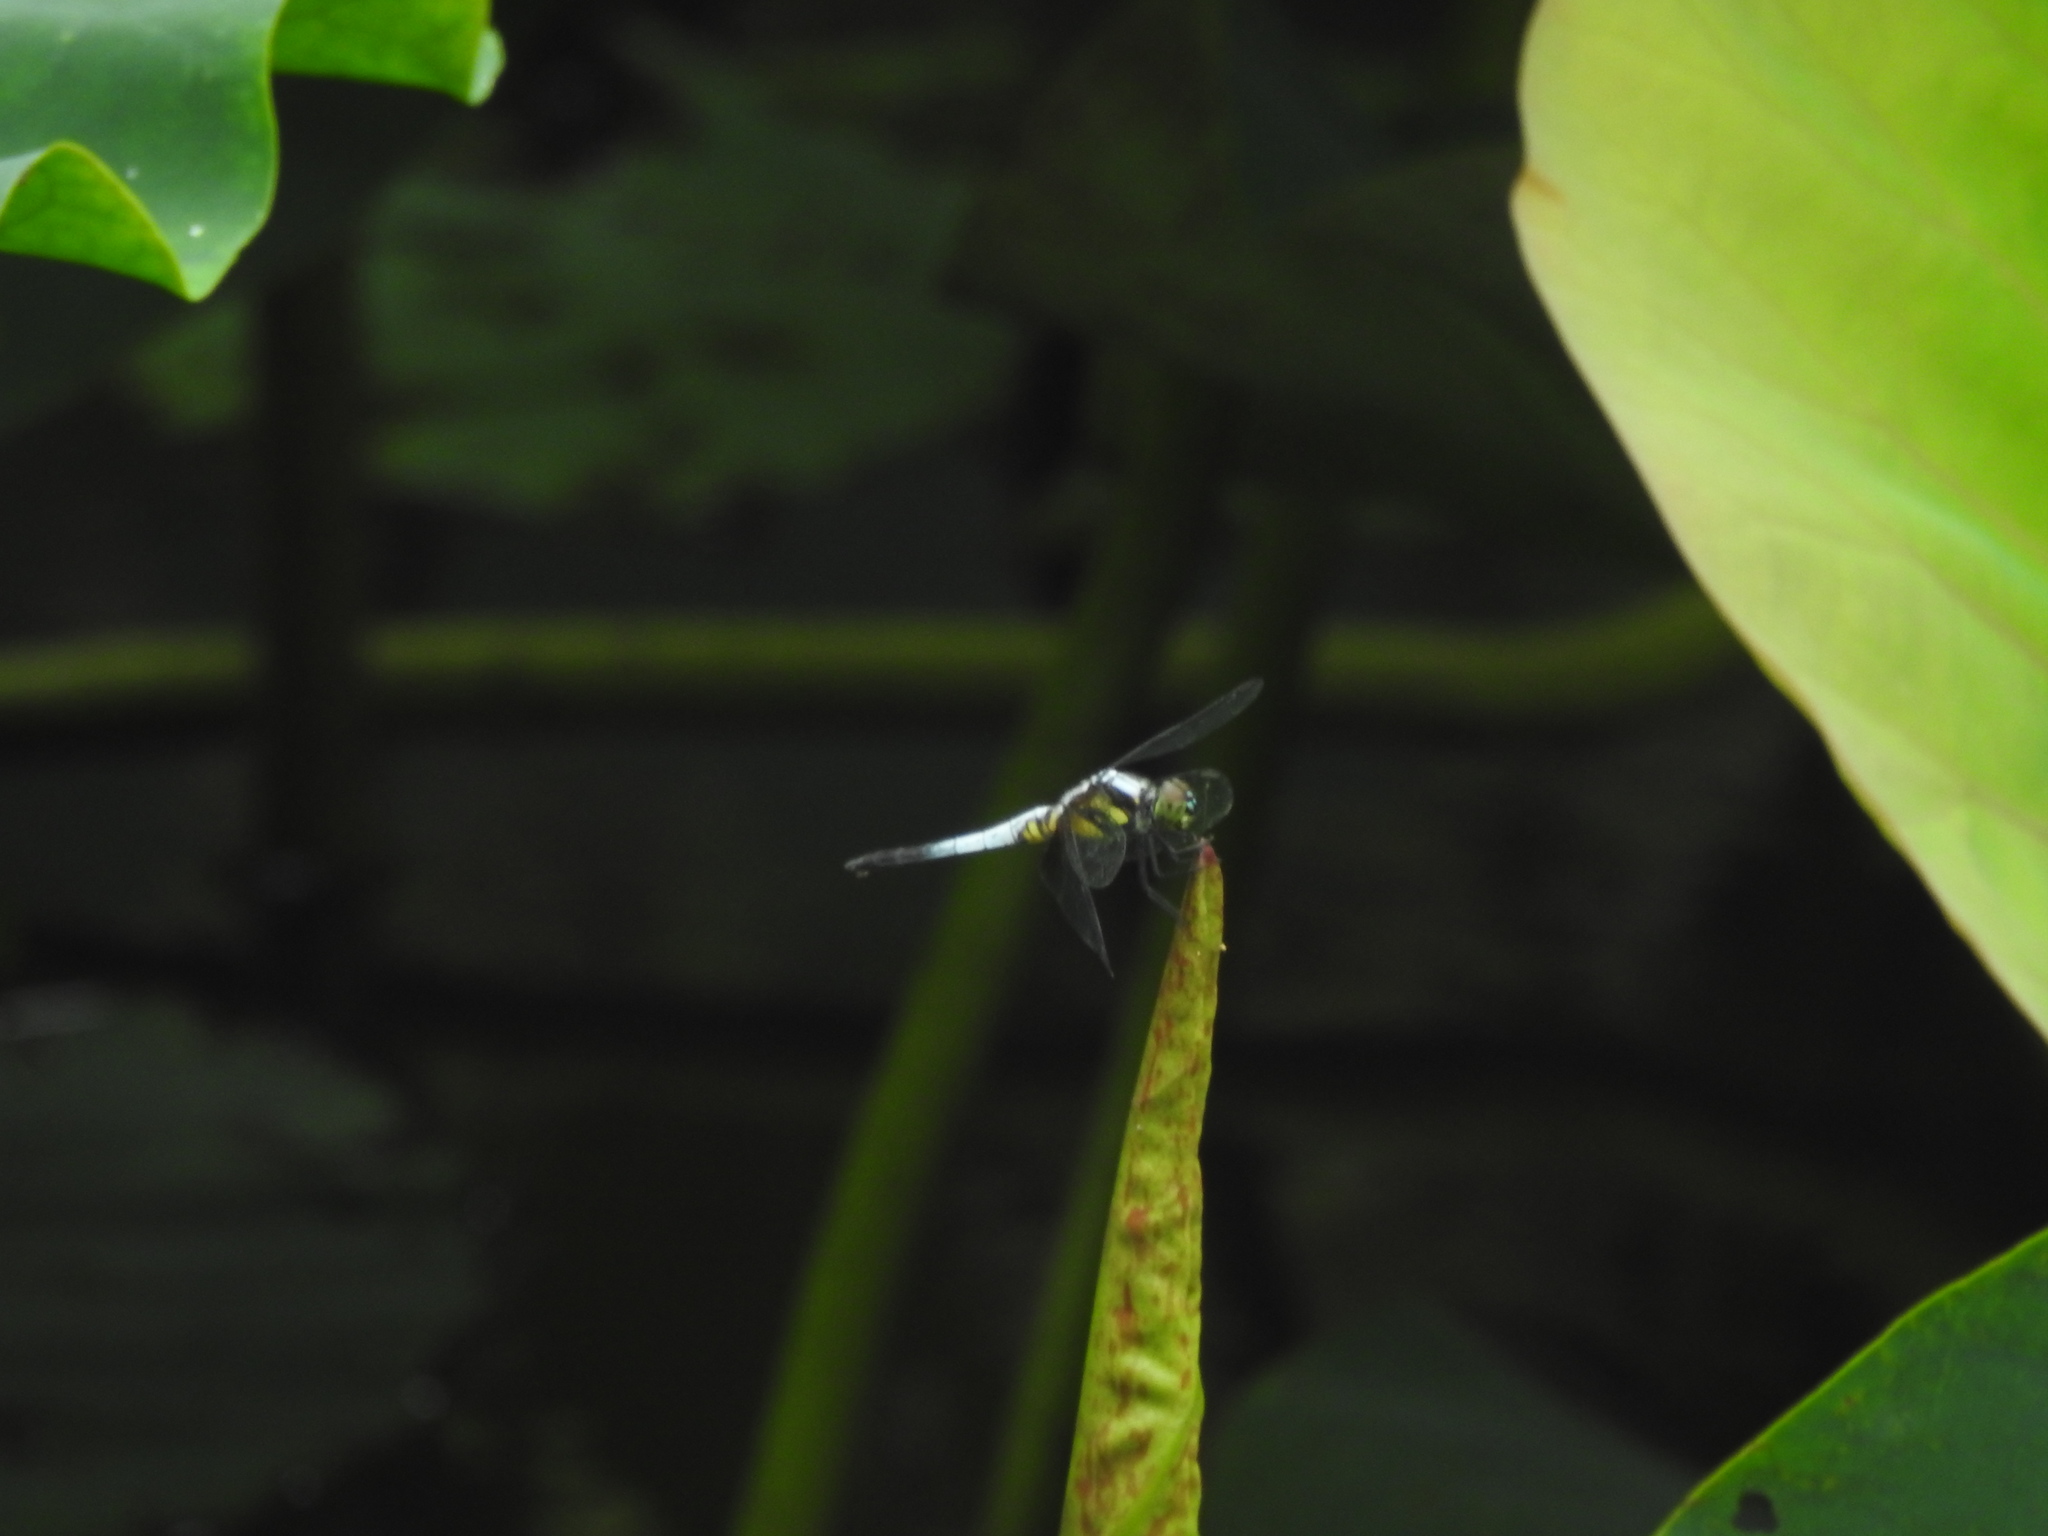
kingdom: Animalia
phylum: Arthropoda
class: Insecta
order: Odonata
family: Libellulidae
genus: Brachydiplax
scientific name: Brachydiplax chalybea
